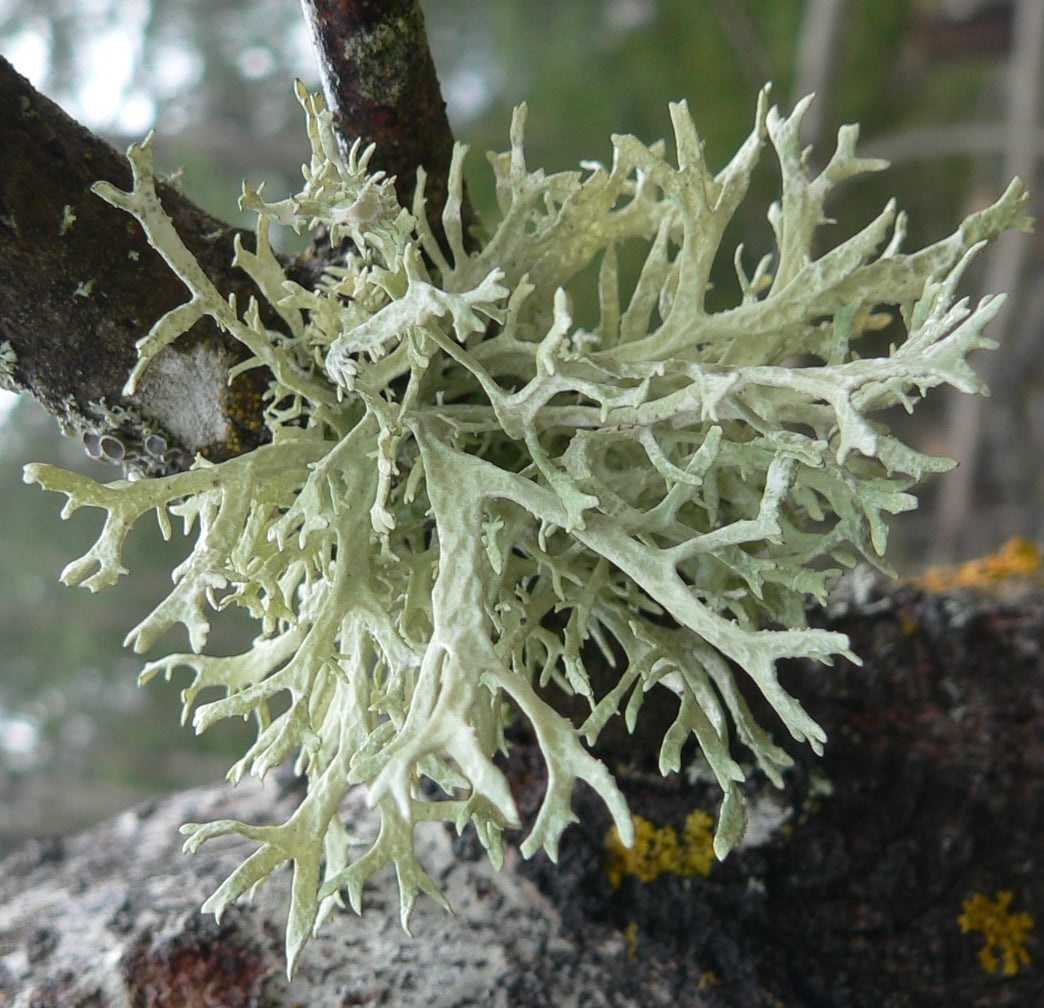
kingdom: Fungi
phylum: Ascomycota
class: Lecanoromycetes
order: Lecanorales
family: Parmeliaceae
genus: Evernia
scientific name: Evernia prunastri
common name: Oak moss
